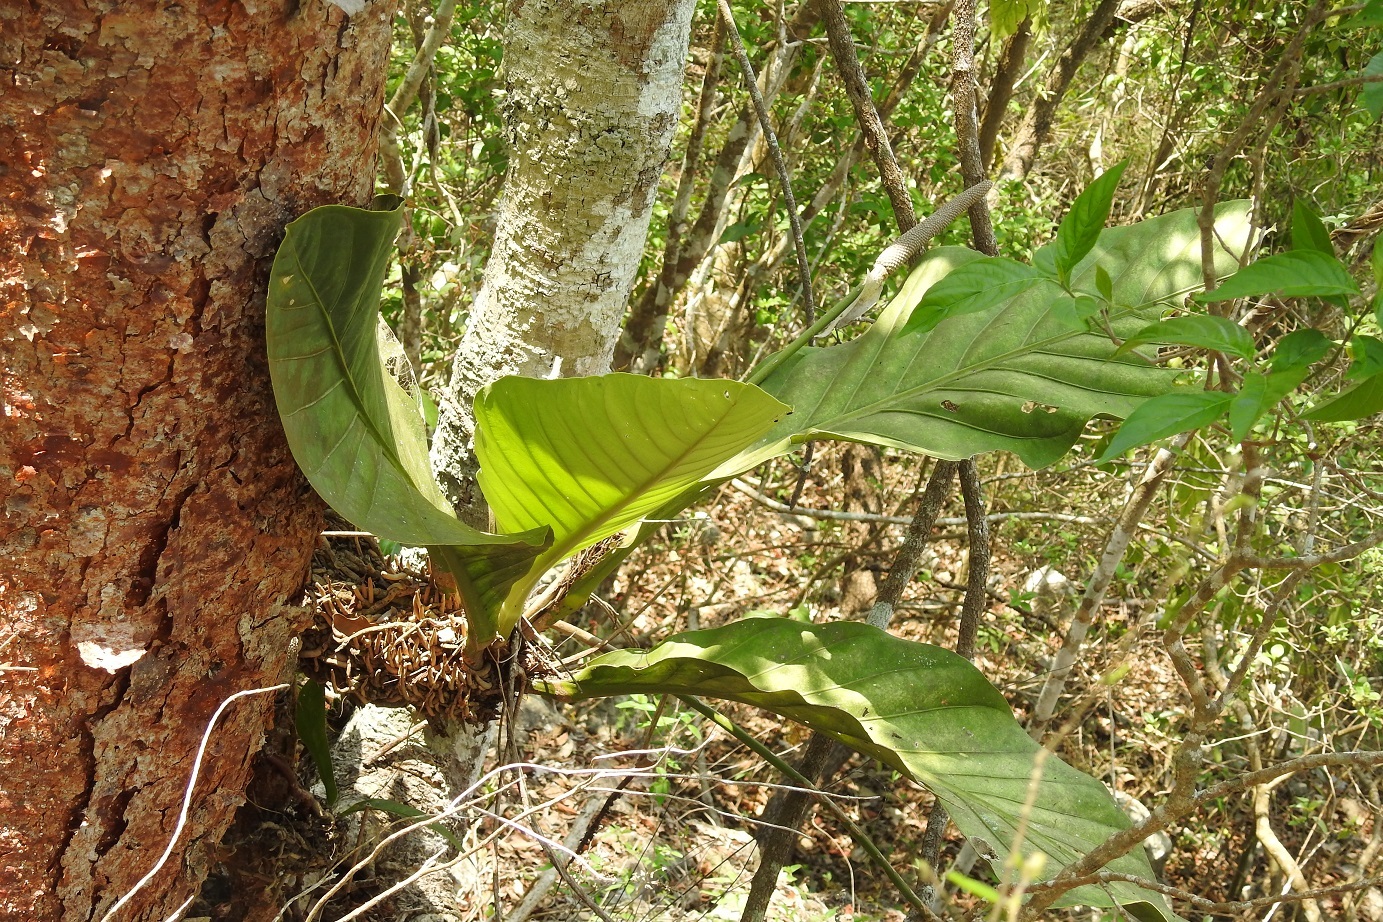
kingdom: Plantae
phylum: Tracheophyta
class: Liliopsida
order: Alismatales
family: Araceae
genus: Anthurium
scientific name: Anthurium schlechtendalii
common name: Laceleaf
